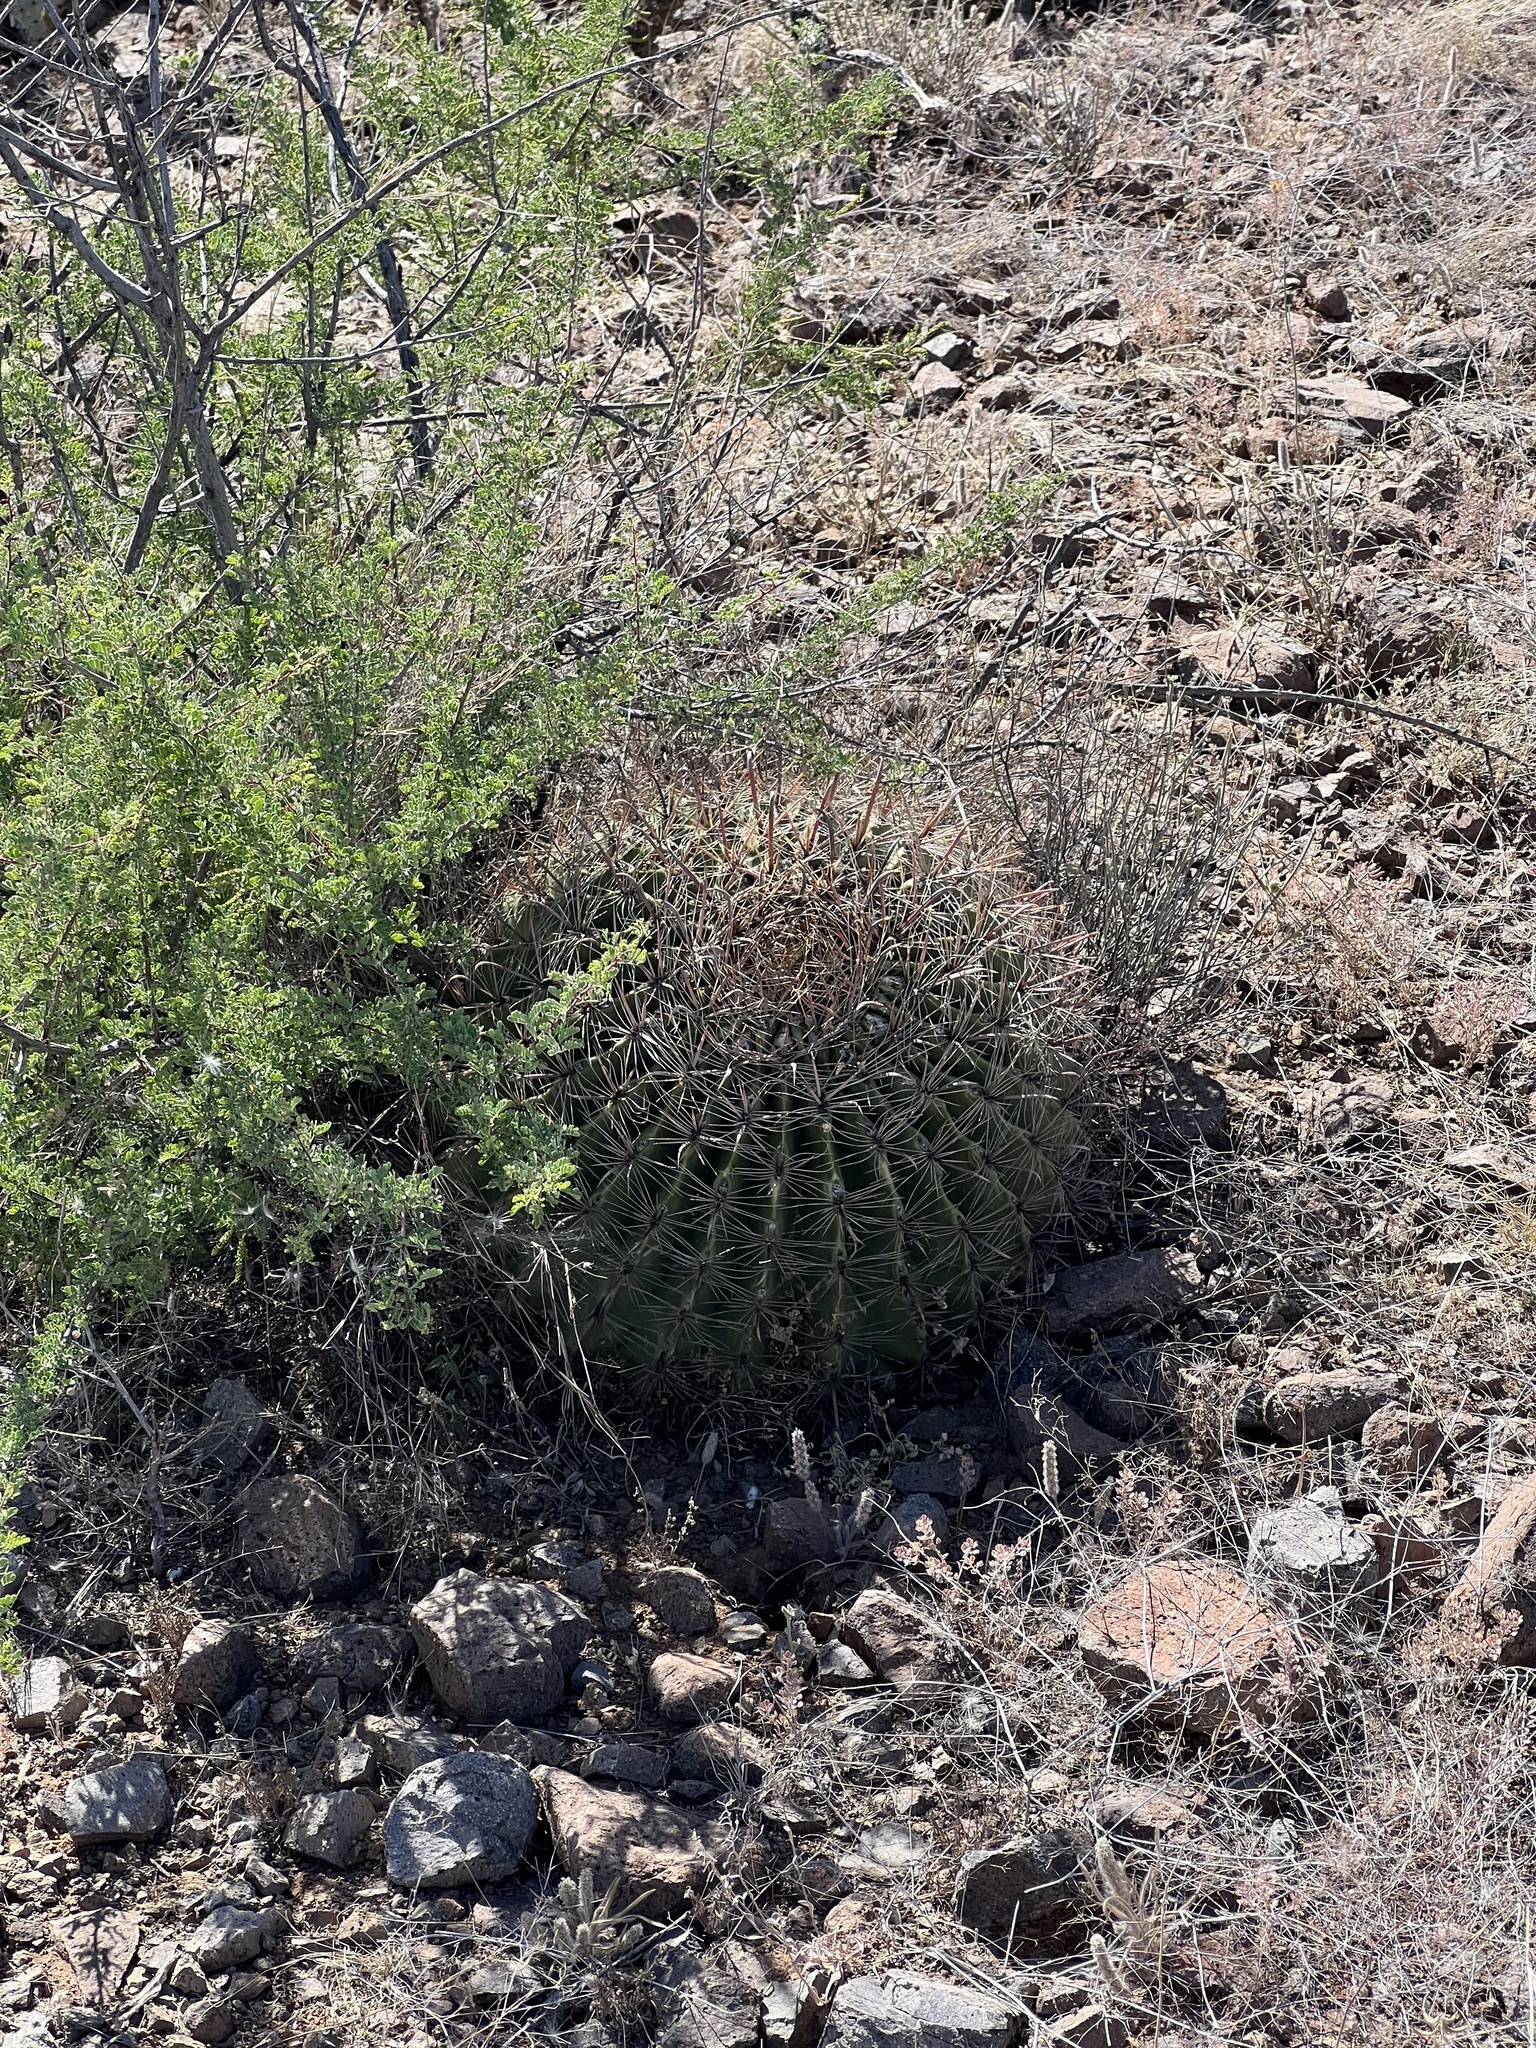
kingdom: Plantae
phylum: Tracheophyta
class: Magnoliopsida
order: Caryophyllales
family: Cactaceae
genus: Ferocactus
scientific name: Ferocactus wislizeni
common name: Candy barrel cactus
